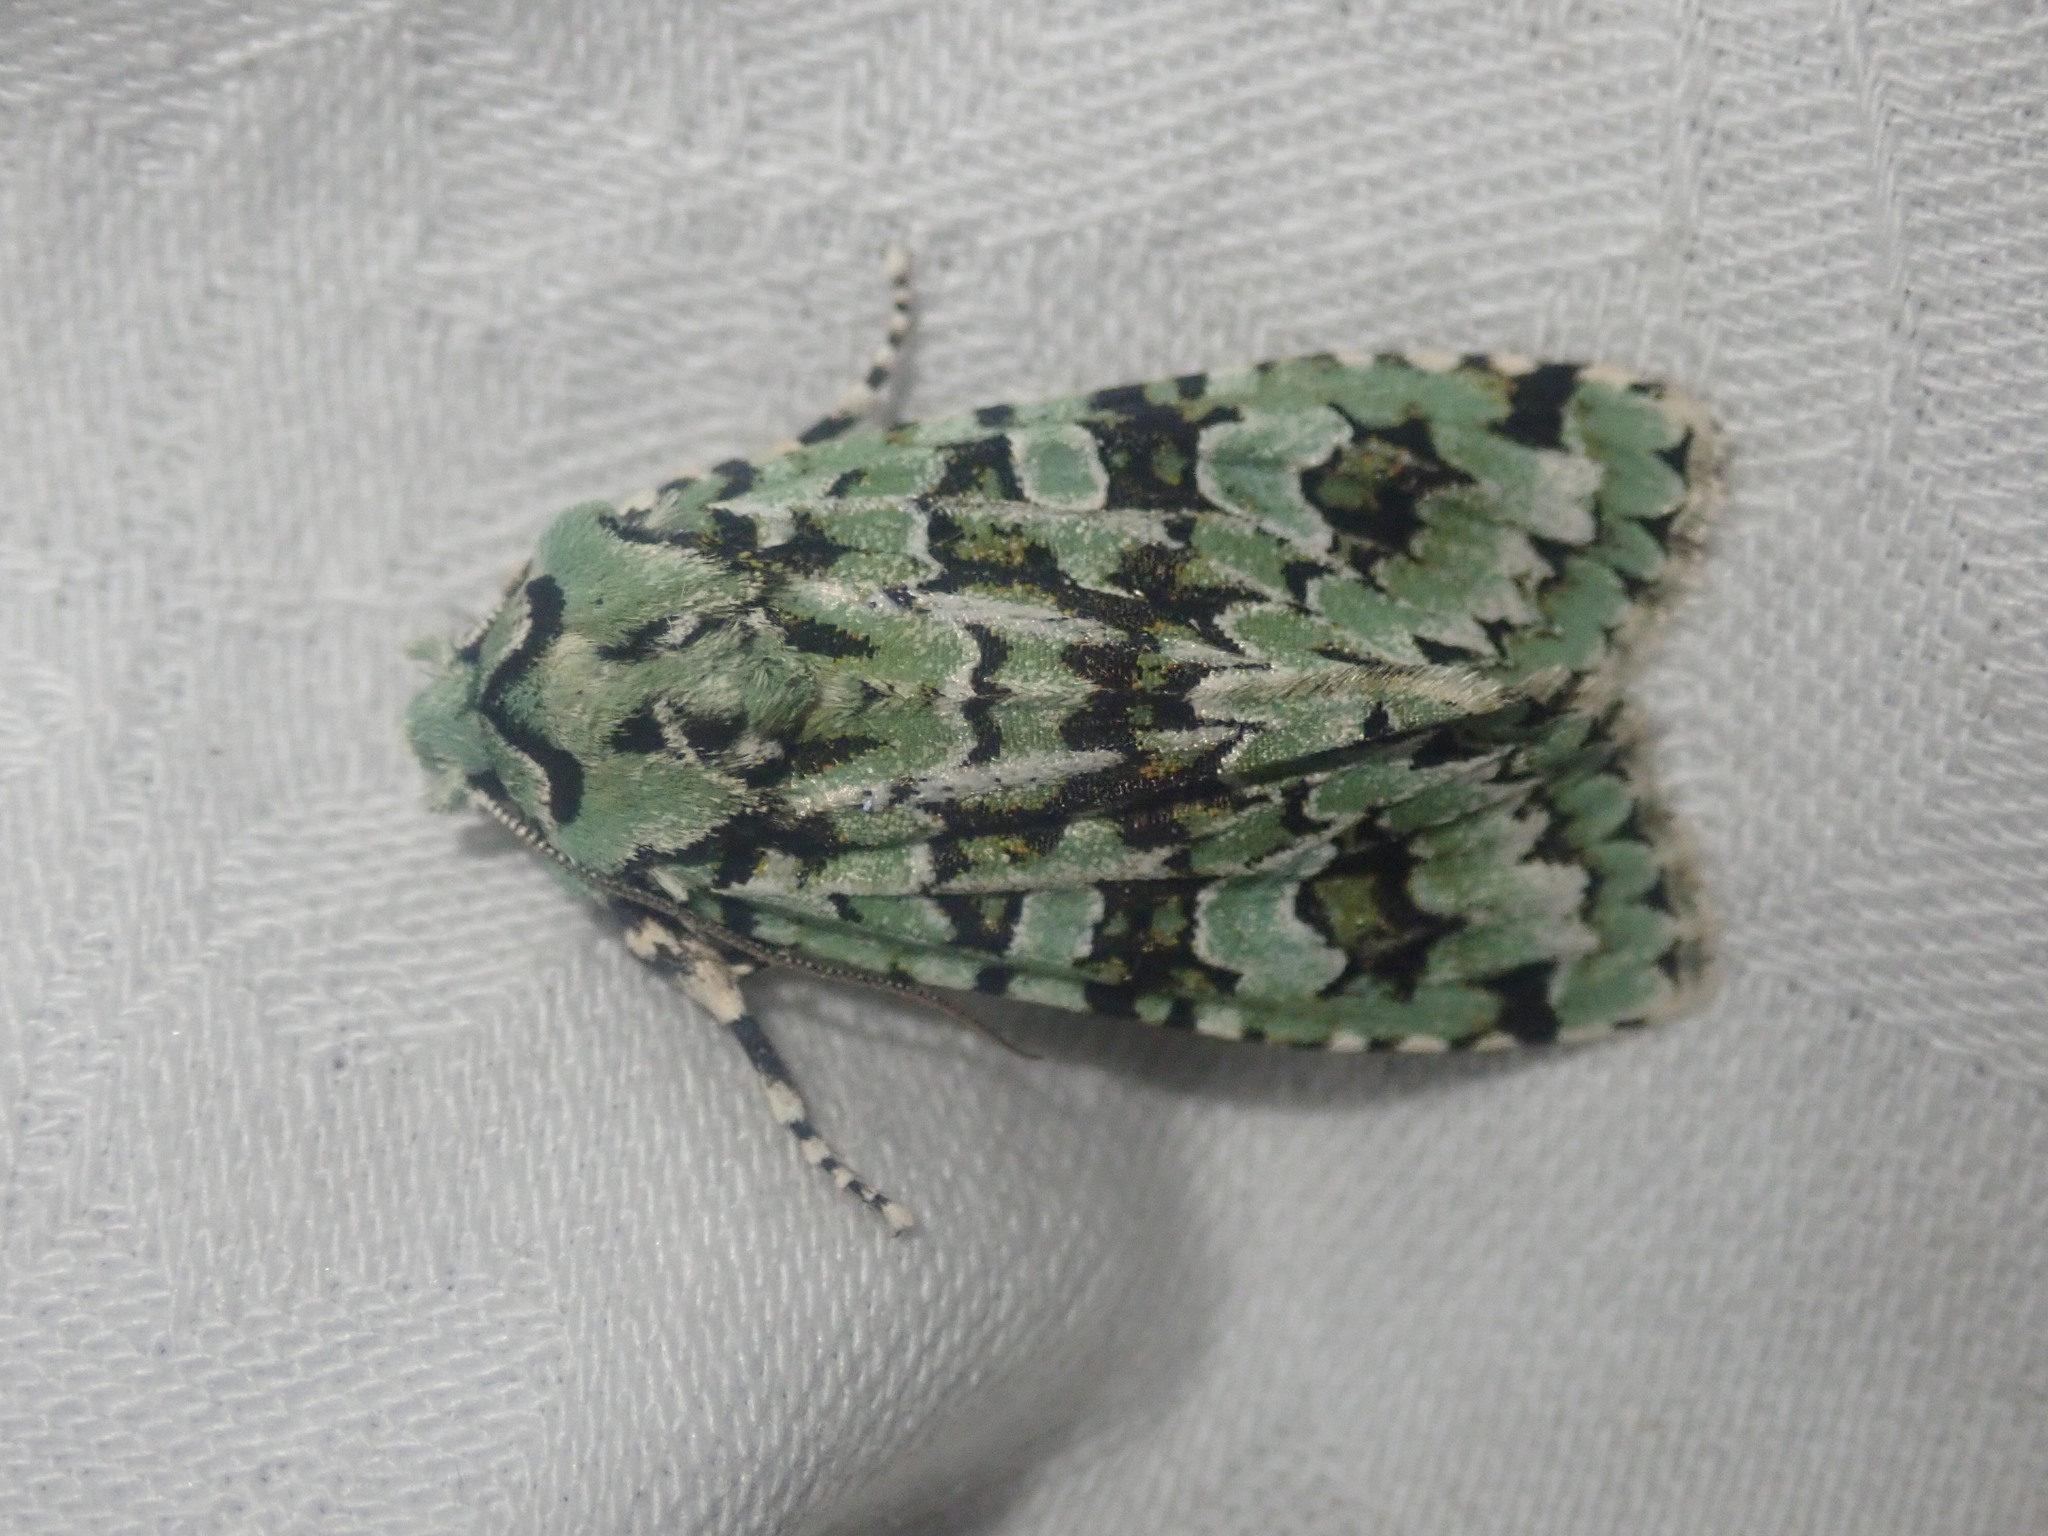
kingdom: Animalia
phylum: Arthropoda
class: Insecta
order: Lepidoptera
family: Noctuidae
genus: Griposia
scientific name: Griposia aprilina
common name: Merveille du jour
